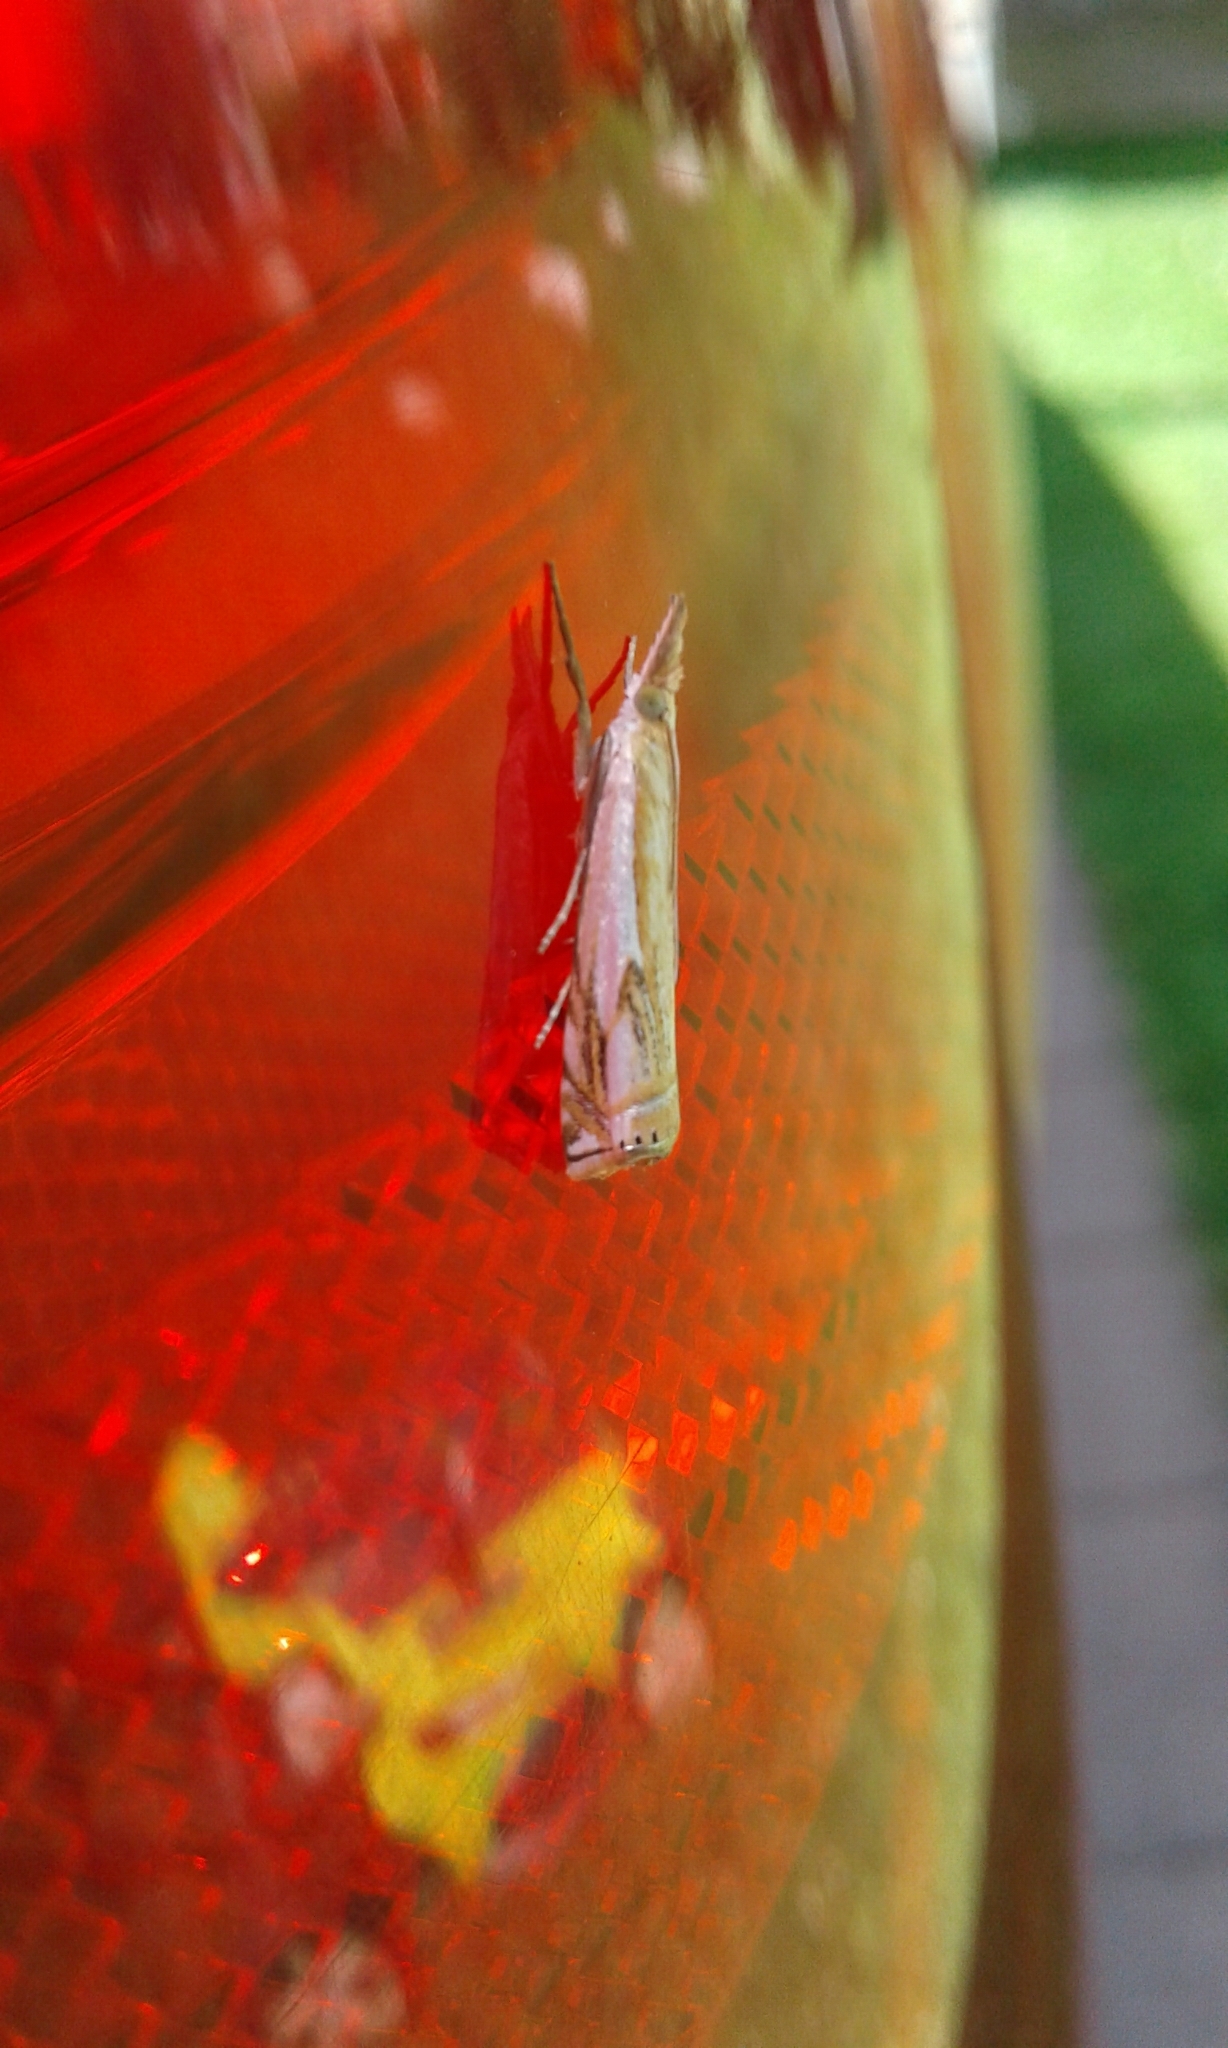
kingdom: Animalia
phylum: Arthropoda
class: Insecta
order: Lepidoptera
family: Crambidae
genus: Crambus
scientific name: Crambus agitatellus
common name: Double-banded grass-veneer
